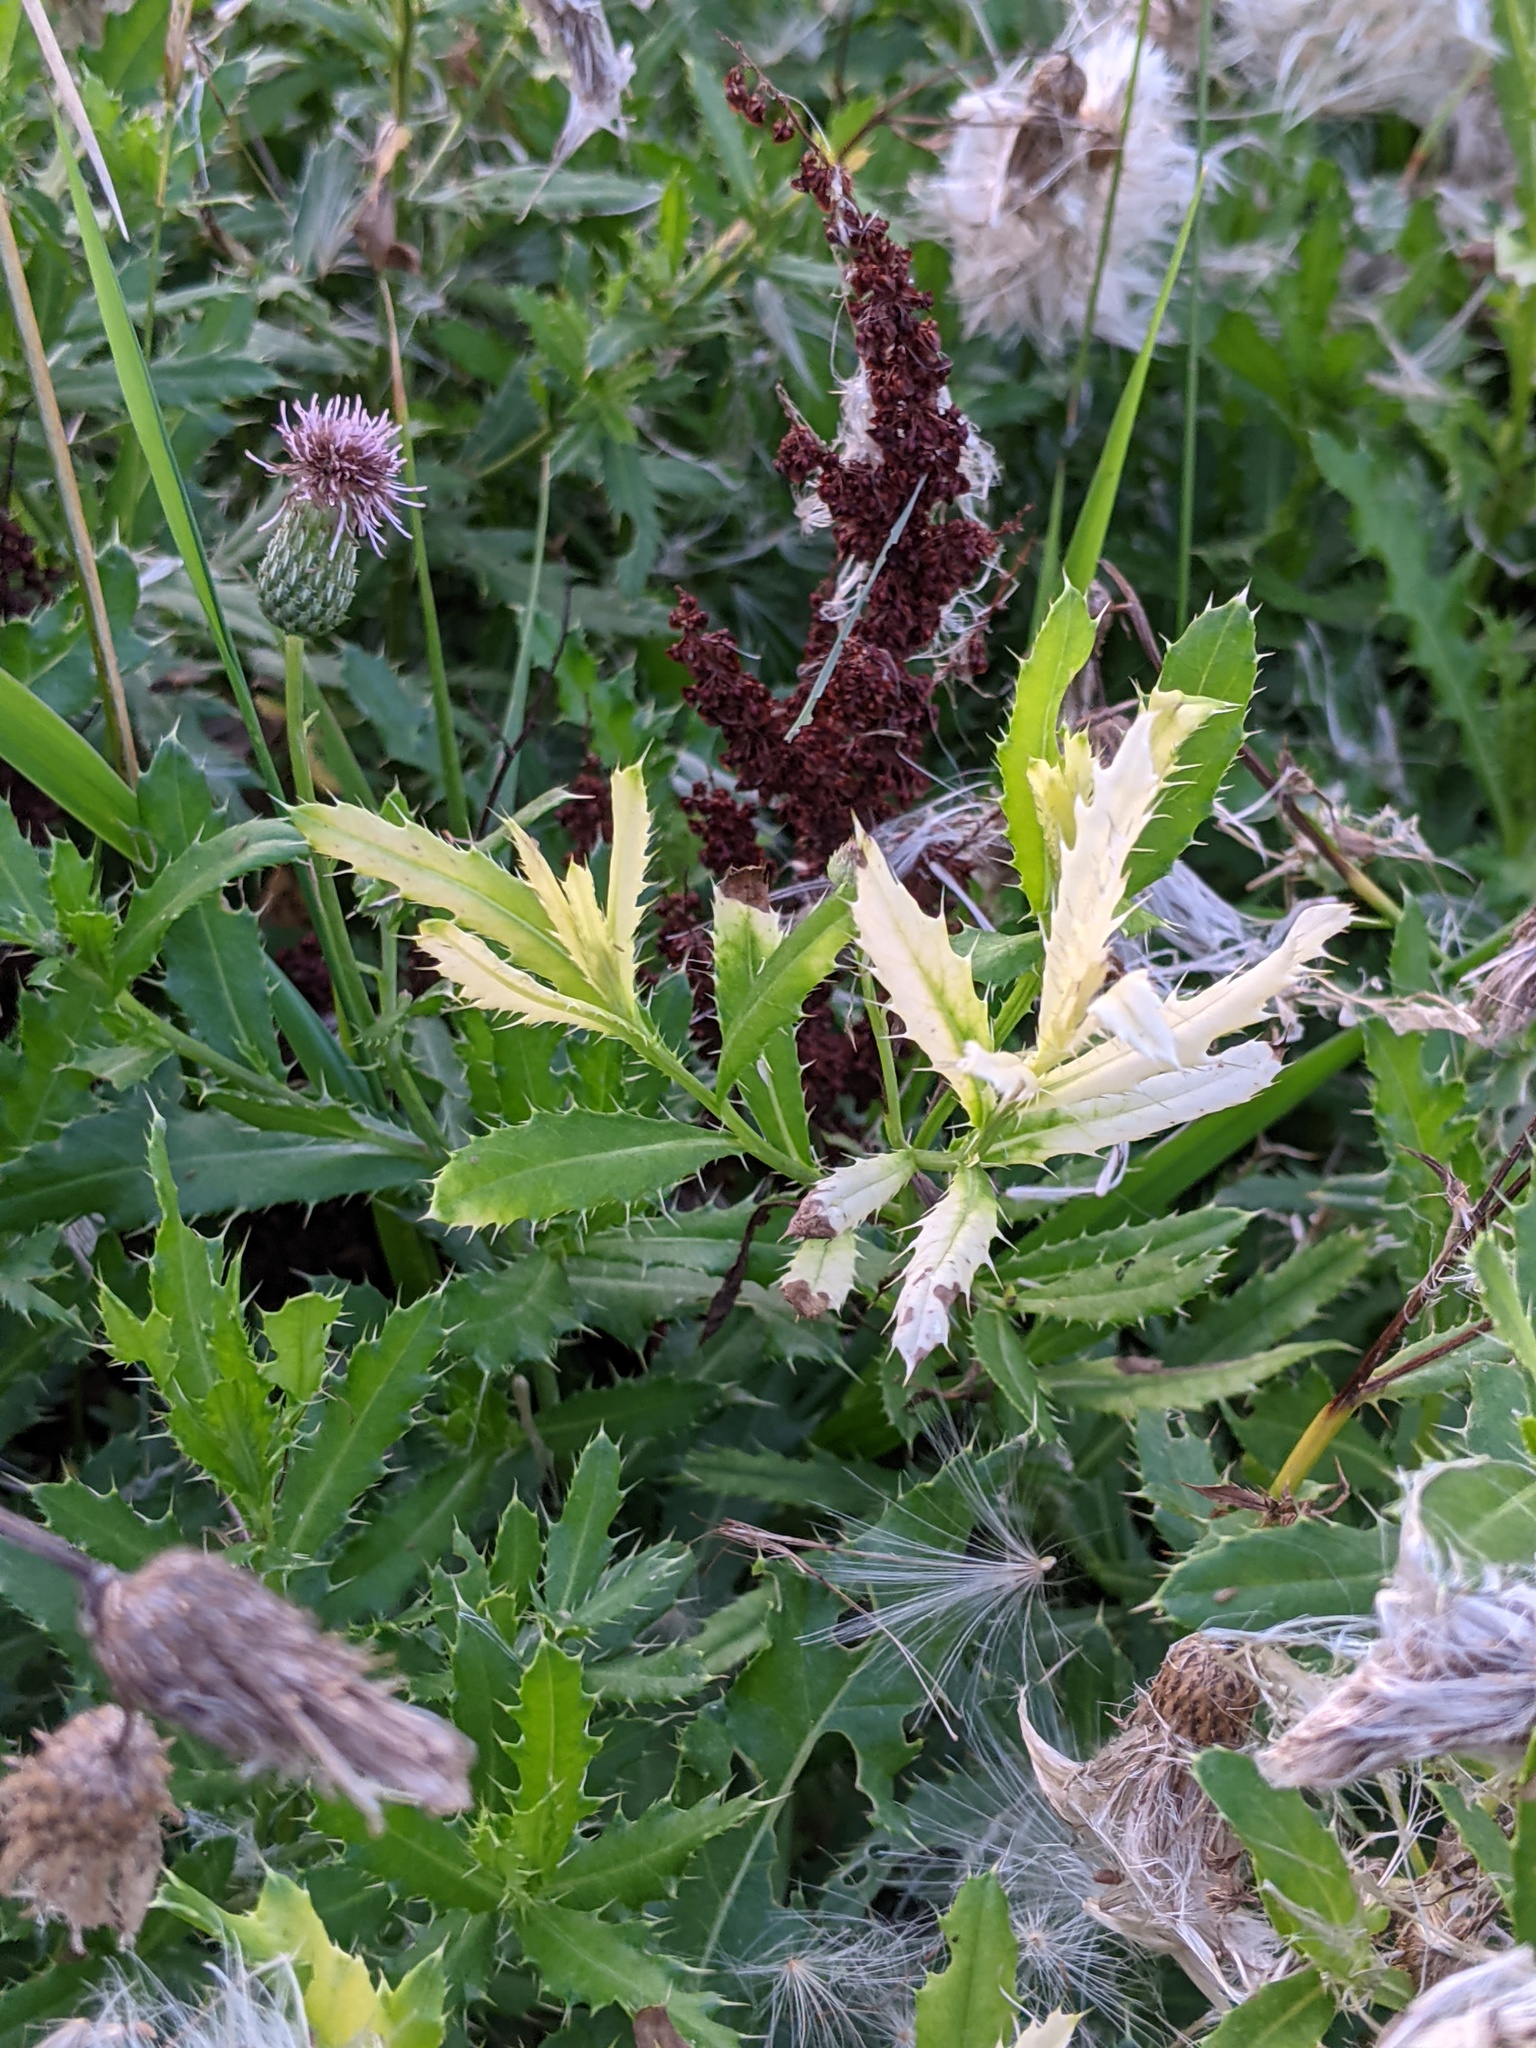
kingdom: Bacteria
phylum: Proteobacteria
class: Gammaproteobacteria
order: Pseudomonadales
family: Pseudomonadaceae
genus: Pseudomonas
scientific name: Pseudomonas syringae
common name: Bacterial speck
